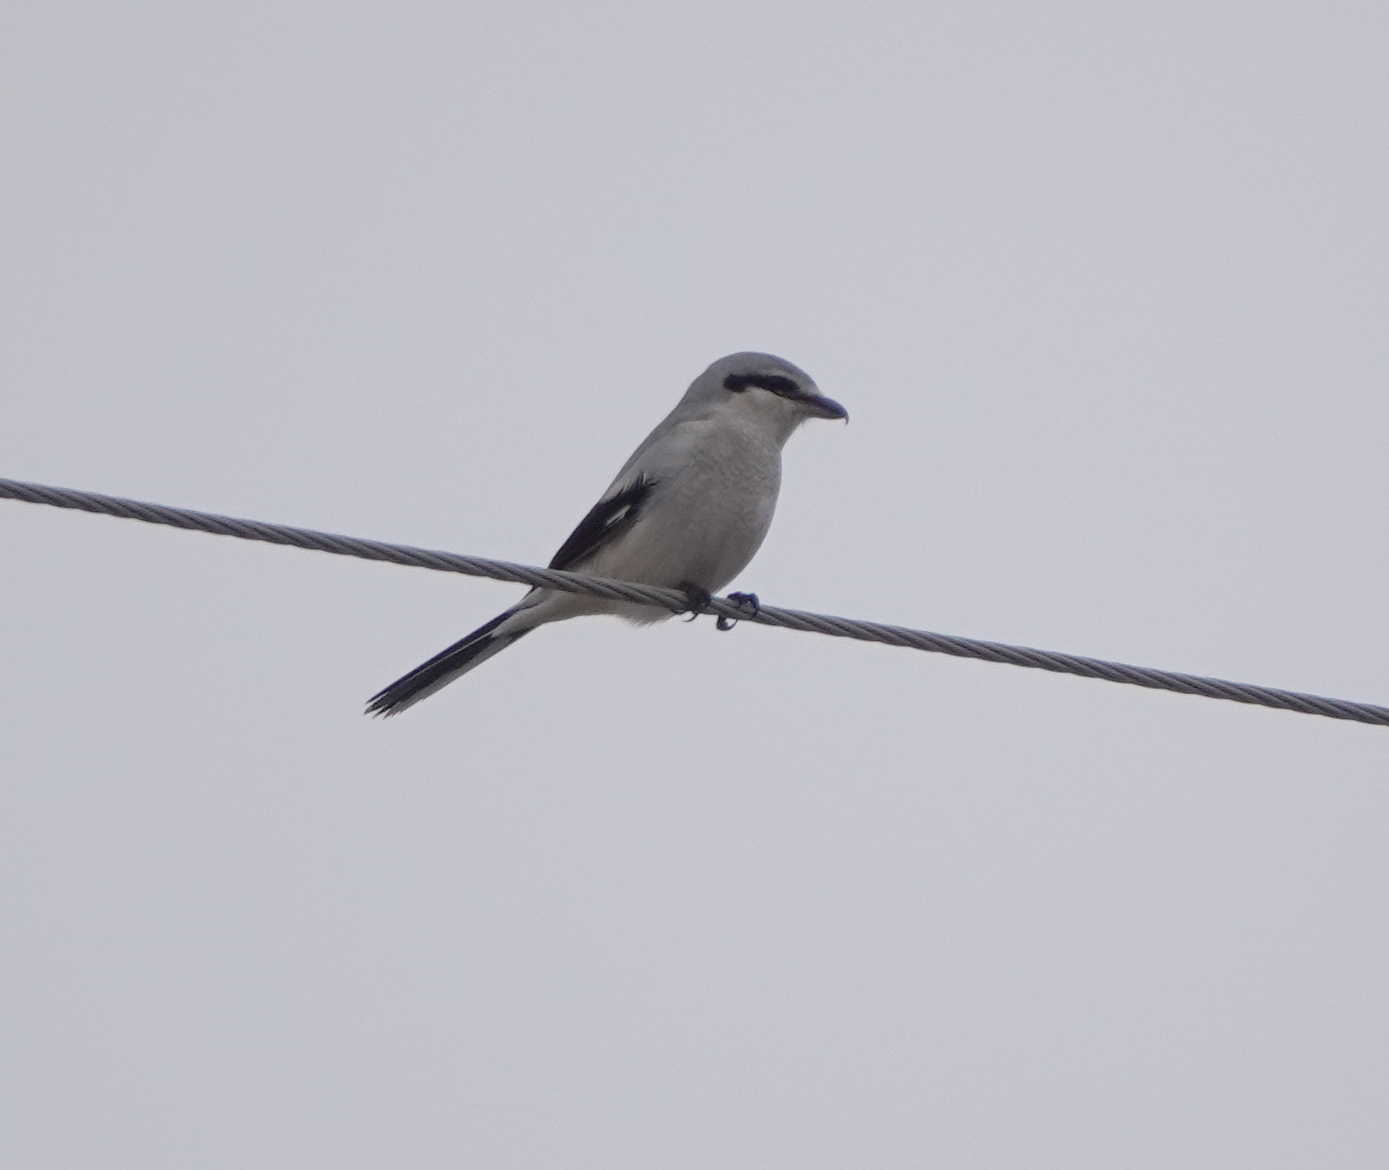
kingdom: Animalia
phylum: Chordata
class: Aves
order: Passeriformes
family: Laniidae
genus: Lanius
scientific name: Lanius borealis
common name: Northern shrike
